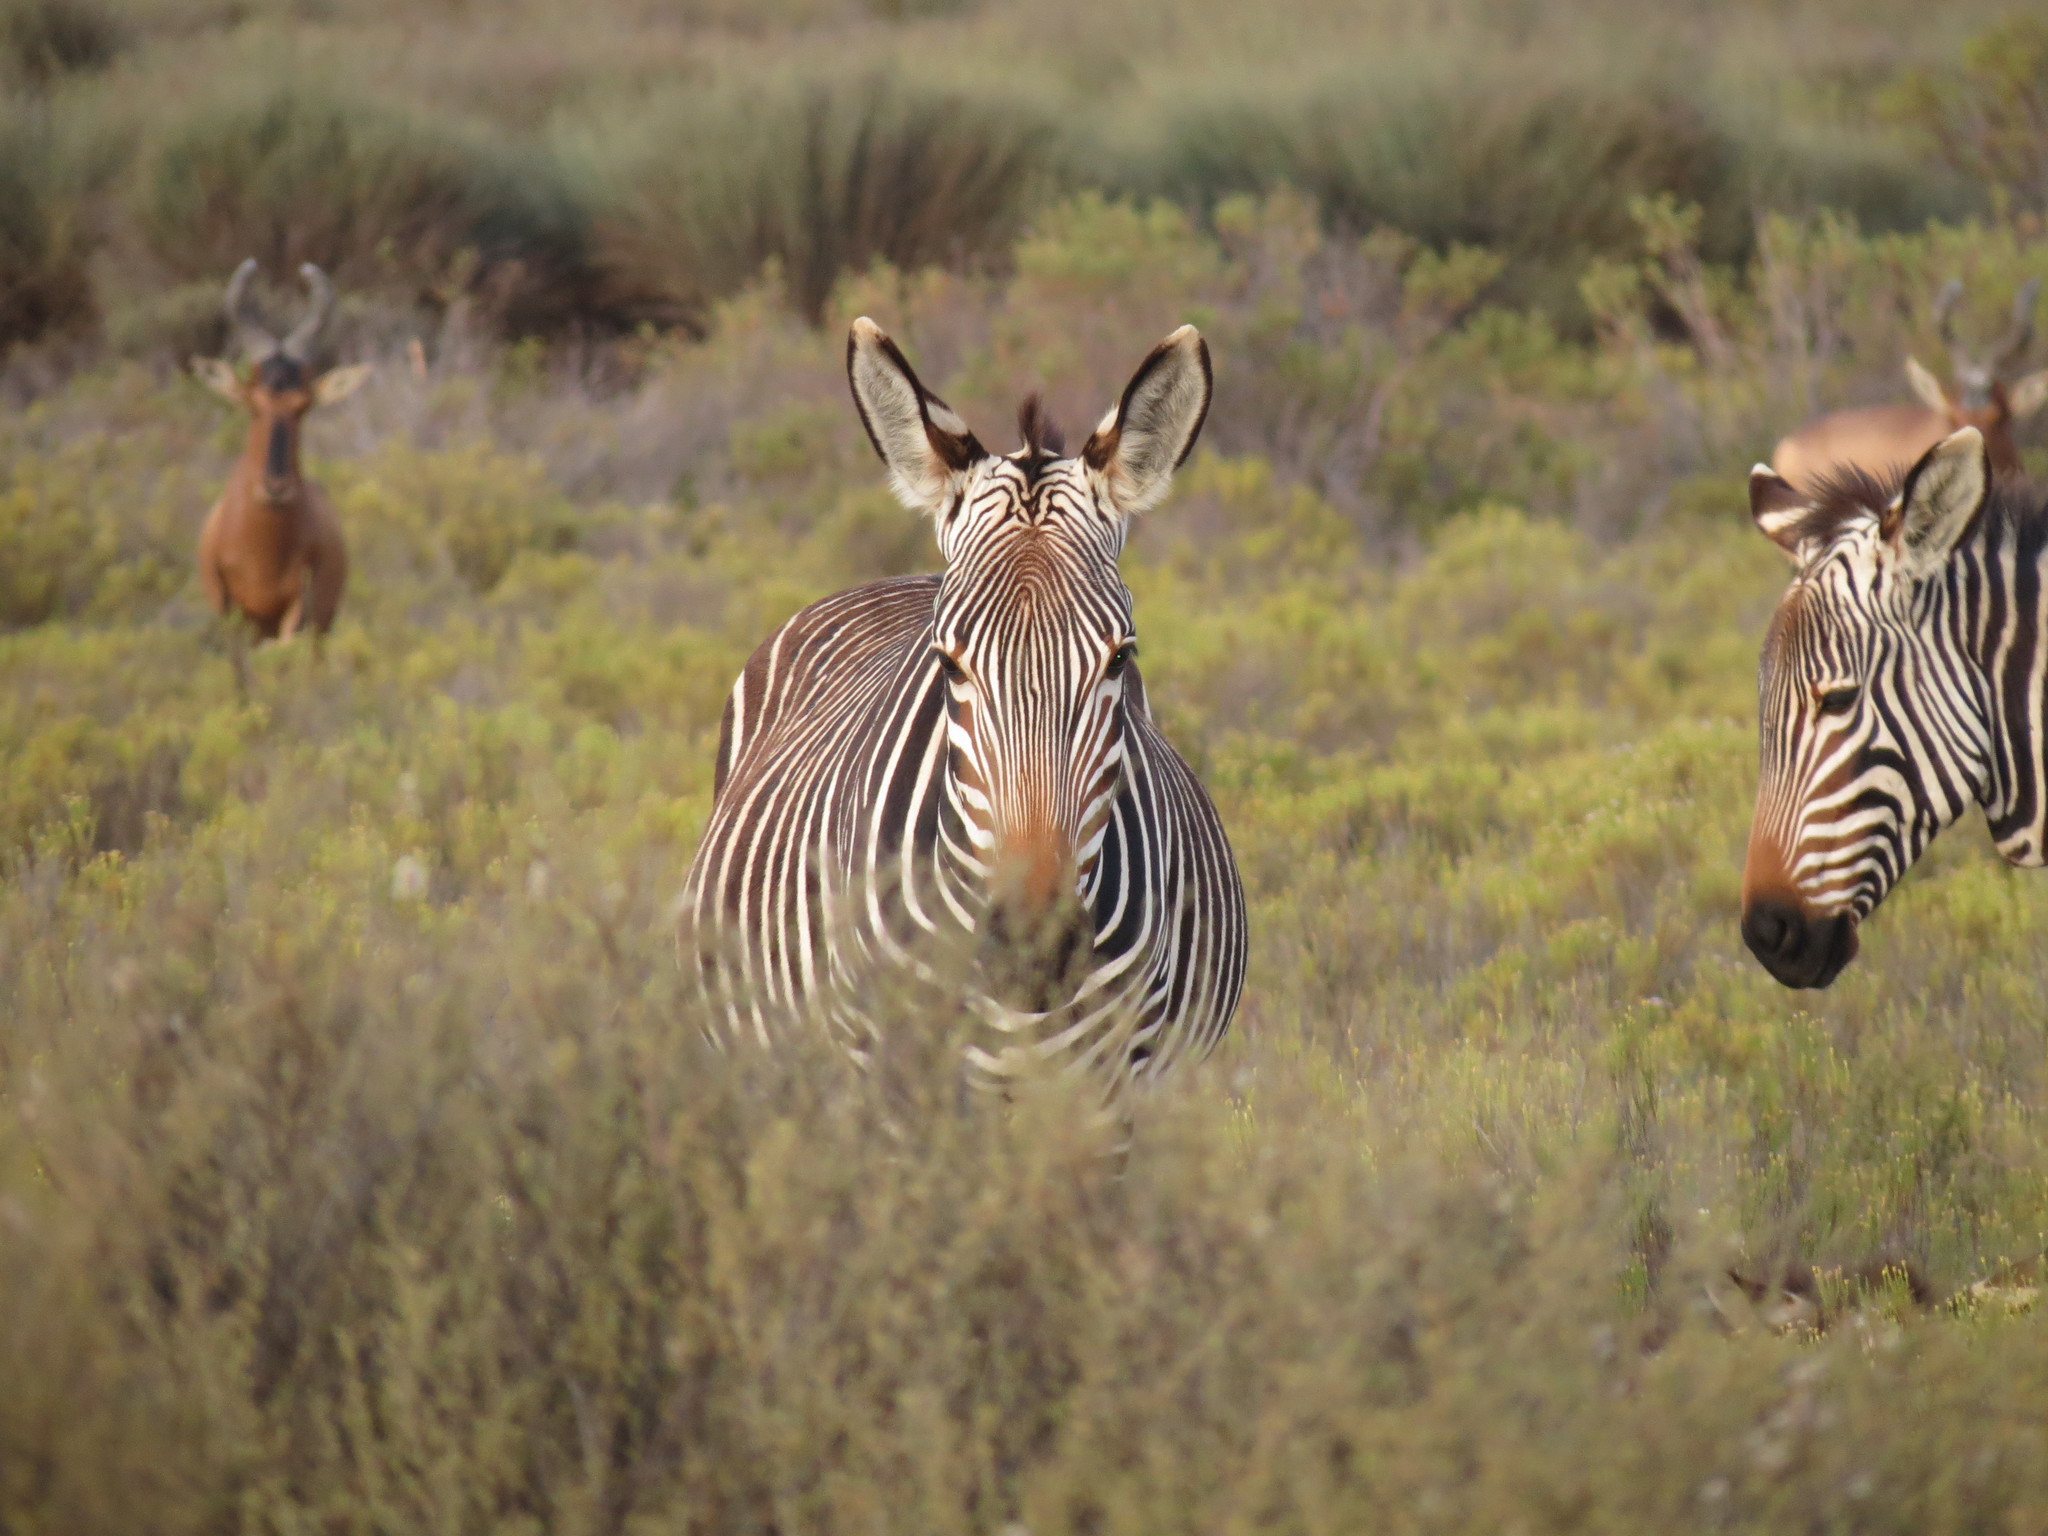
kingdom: Animalia
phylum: Chordata
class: Mammalia
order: Perissodactyla
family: Equidae
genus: Equus
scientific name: Equus zebra
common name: Mountain zebra
